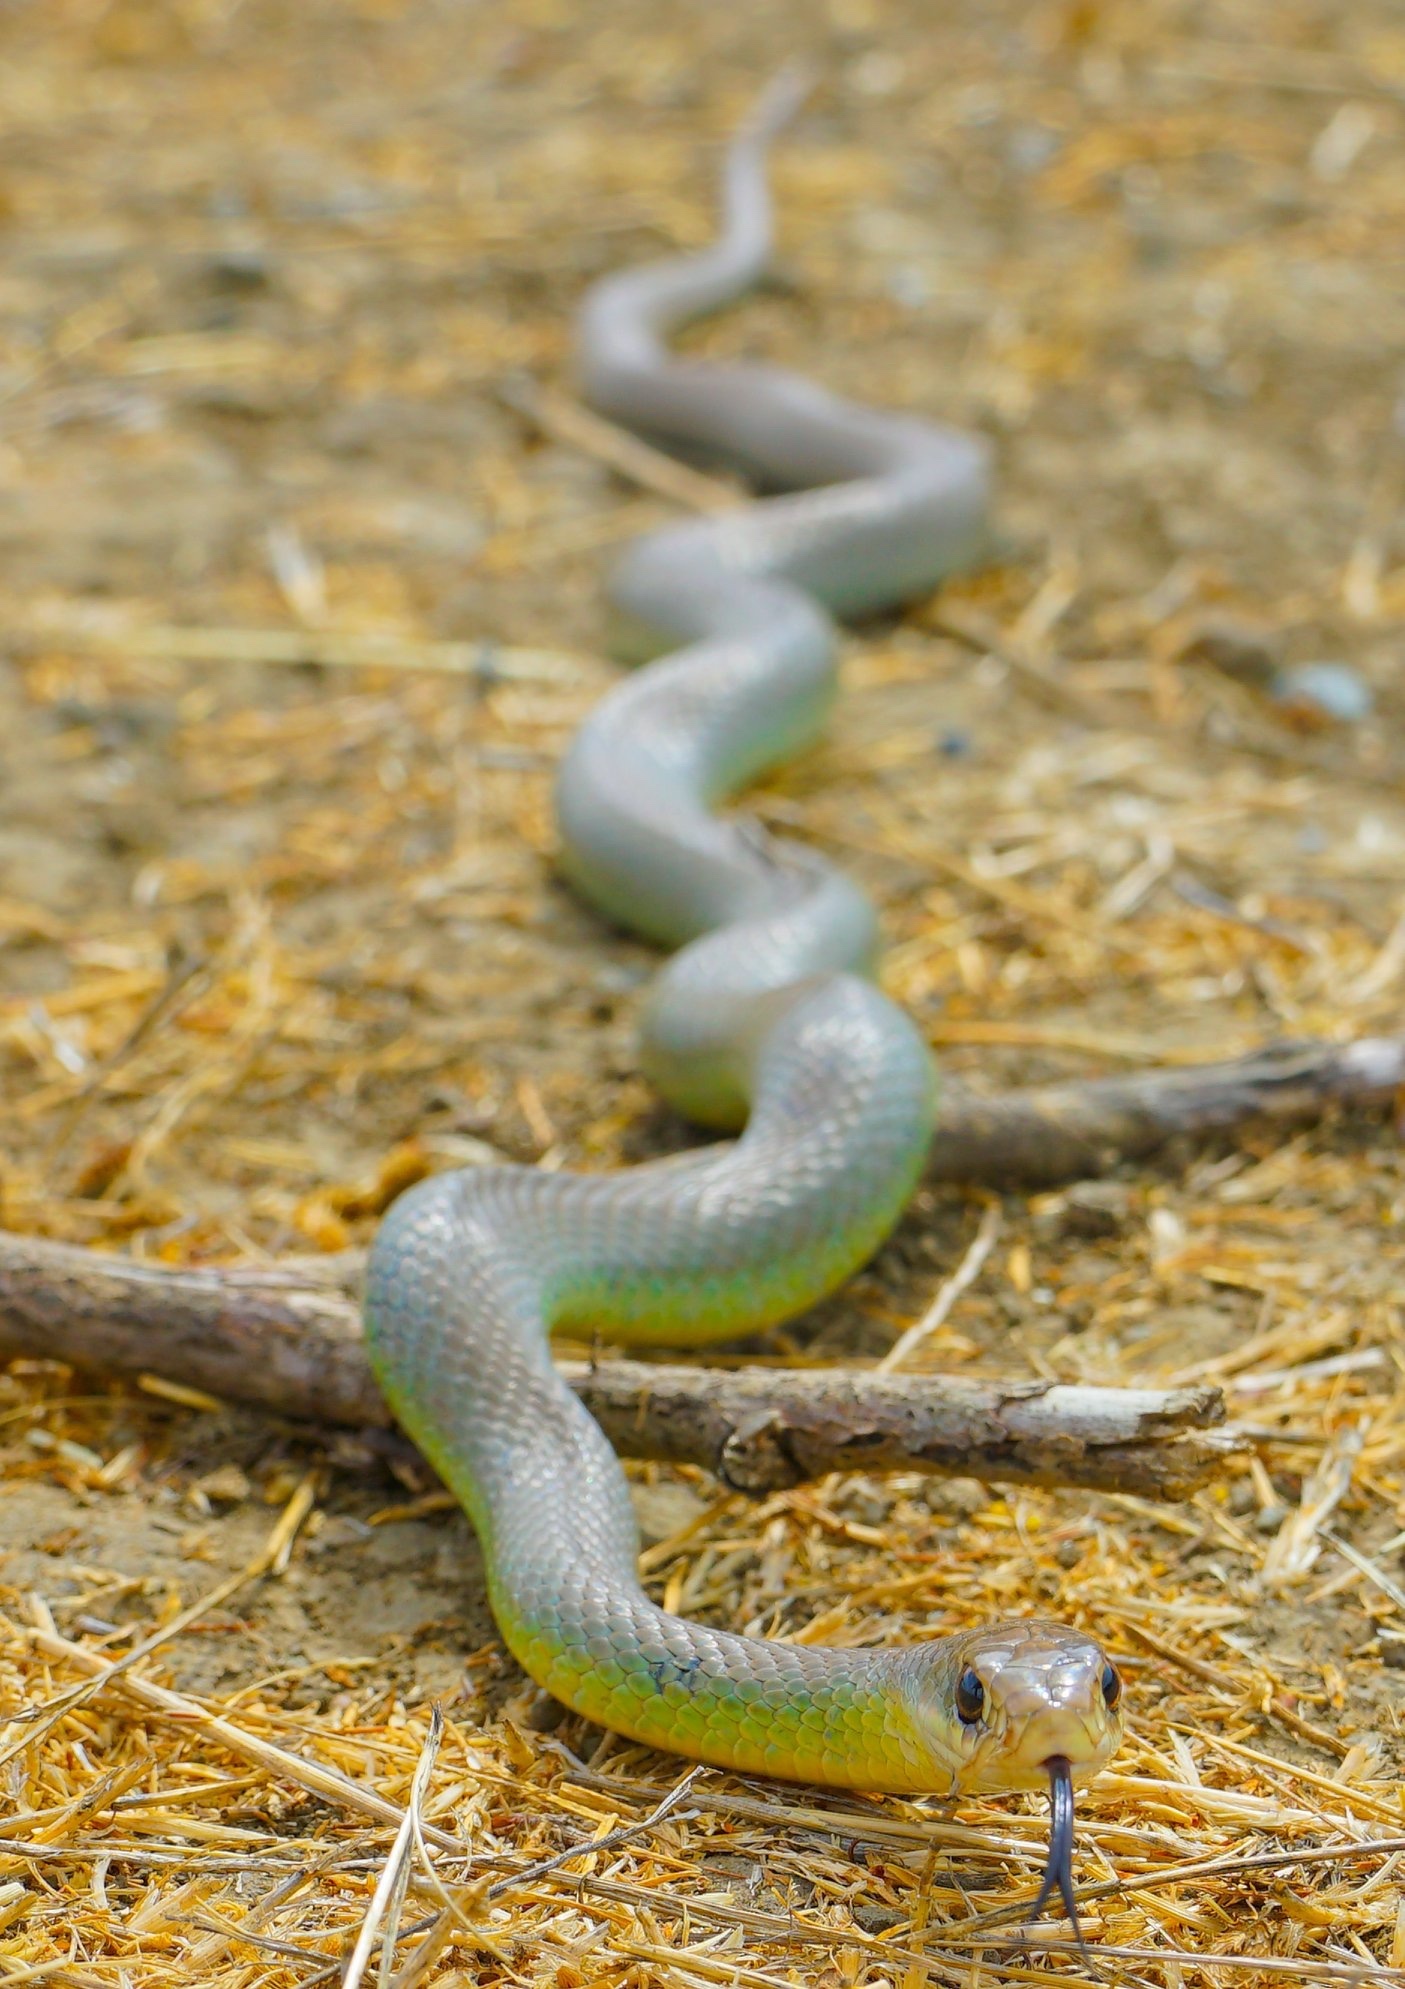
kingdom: Animalia
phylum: Chordata
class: Squamata
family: Colubridae
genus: Coluber
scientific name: Coluber constrictor
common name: Eastern racer
